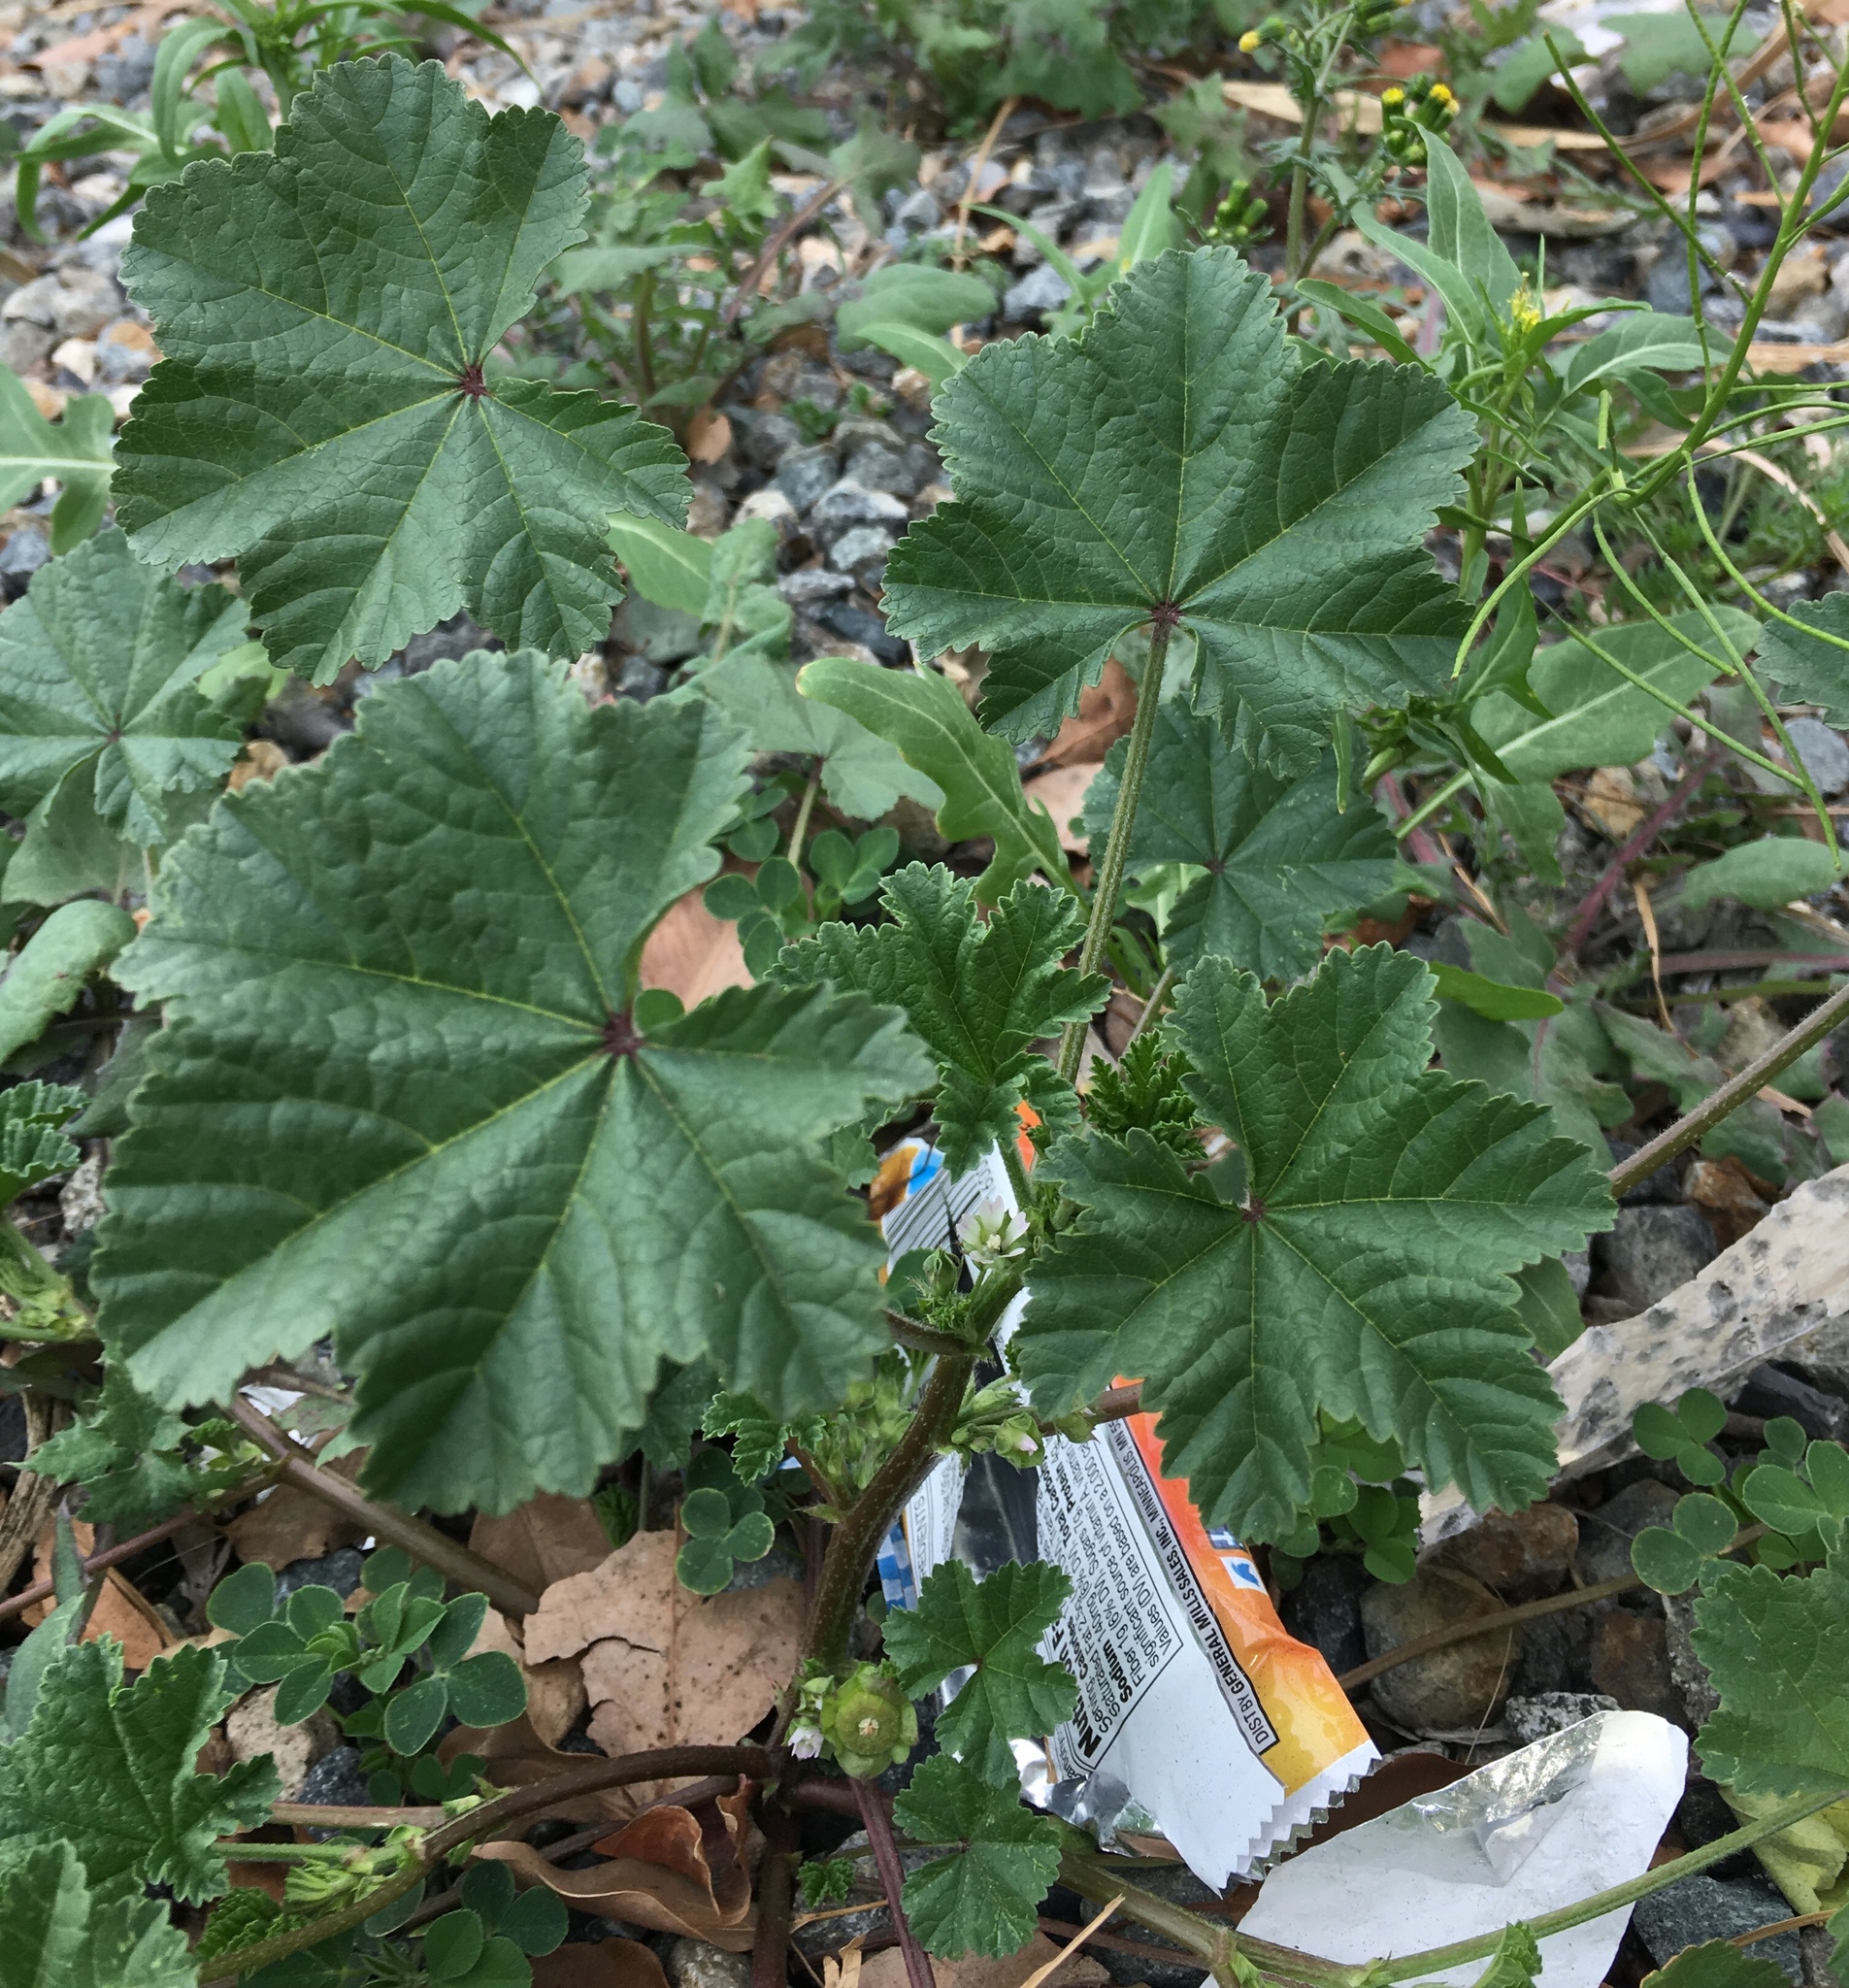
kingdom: Plantae
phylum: Tracheophyta
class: Magnoliopsida
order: Malvales
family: Malvaceae
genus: Malva
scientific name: Malva parviflora
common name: Least mallow
